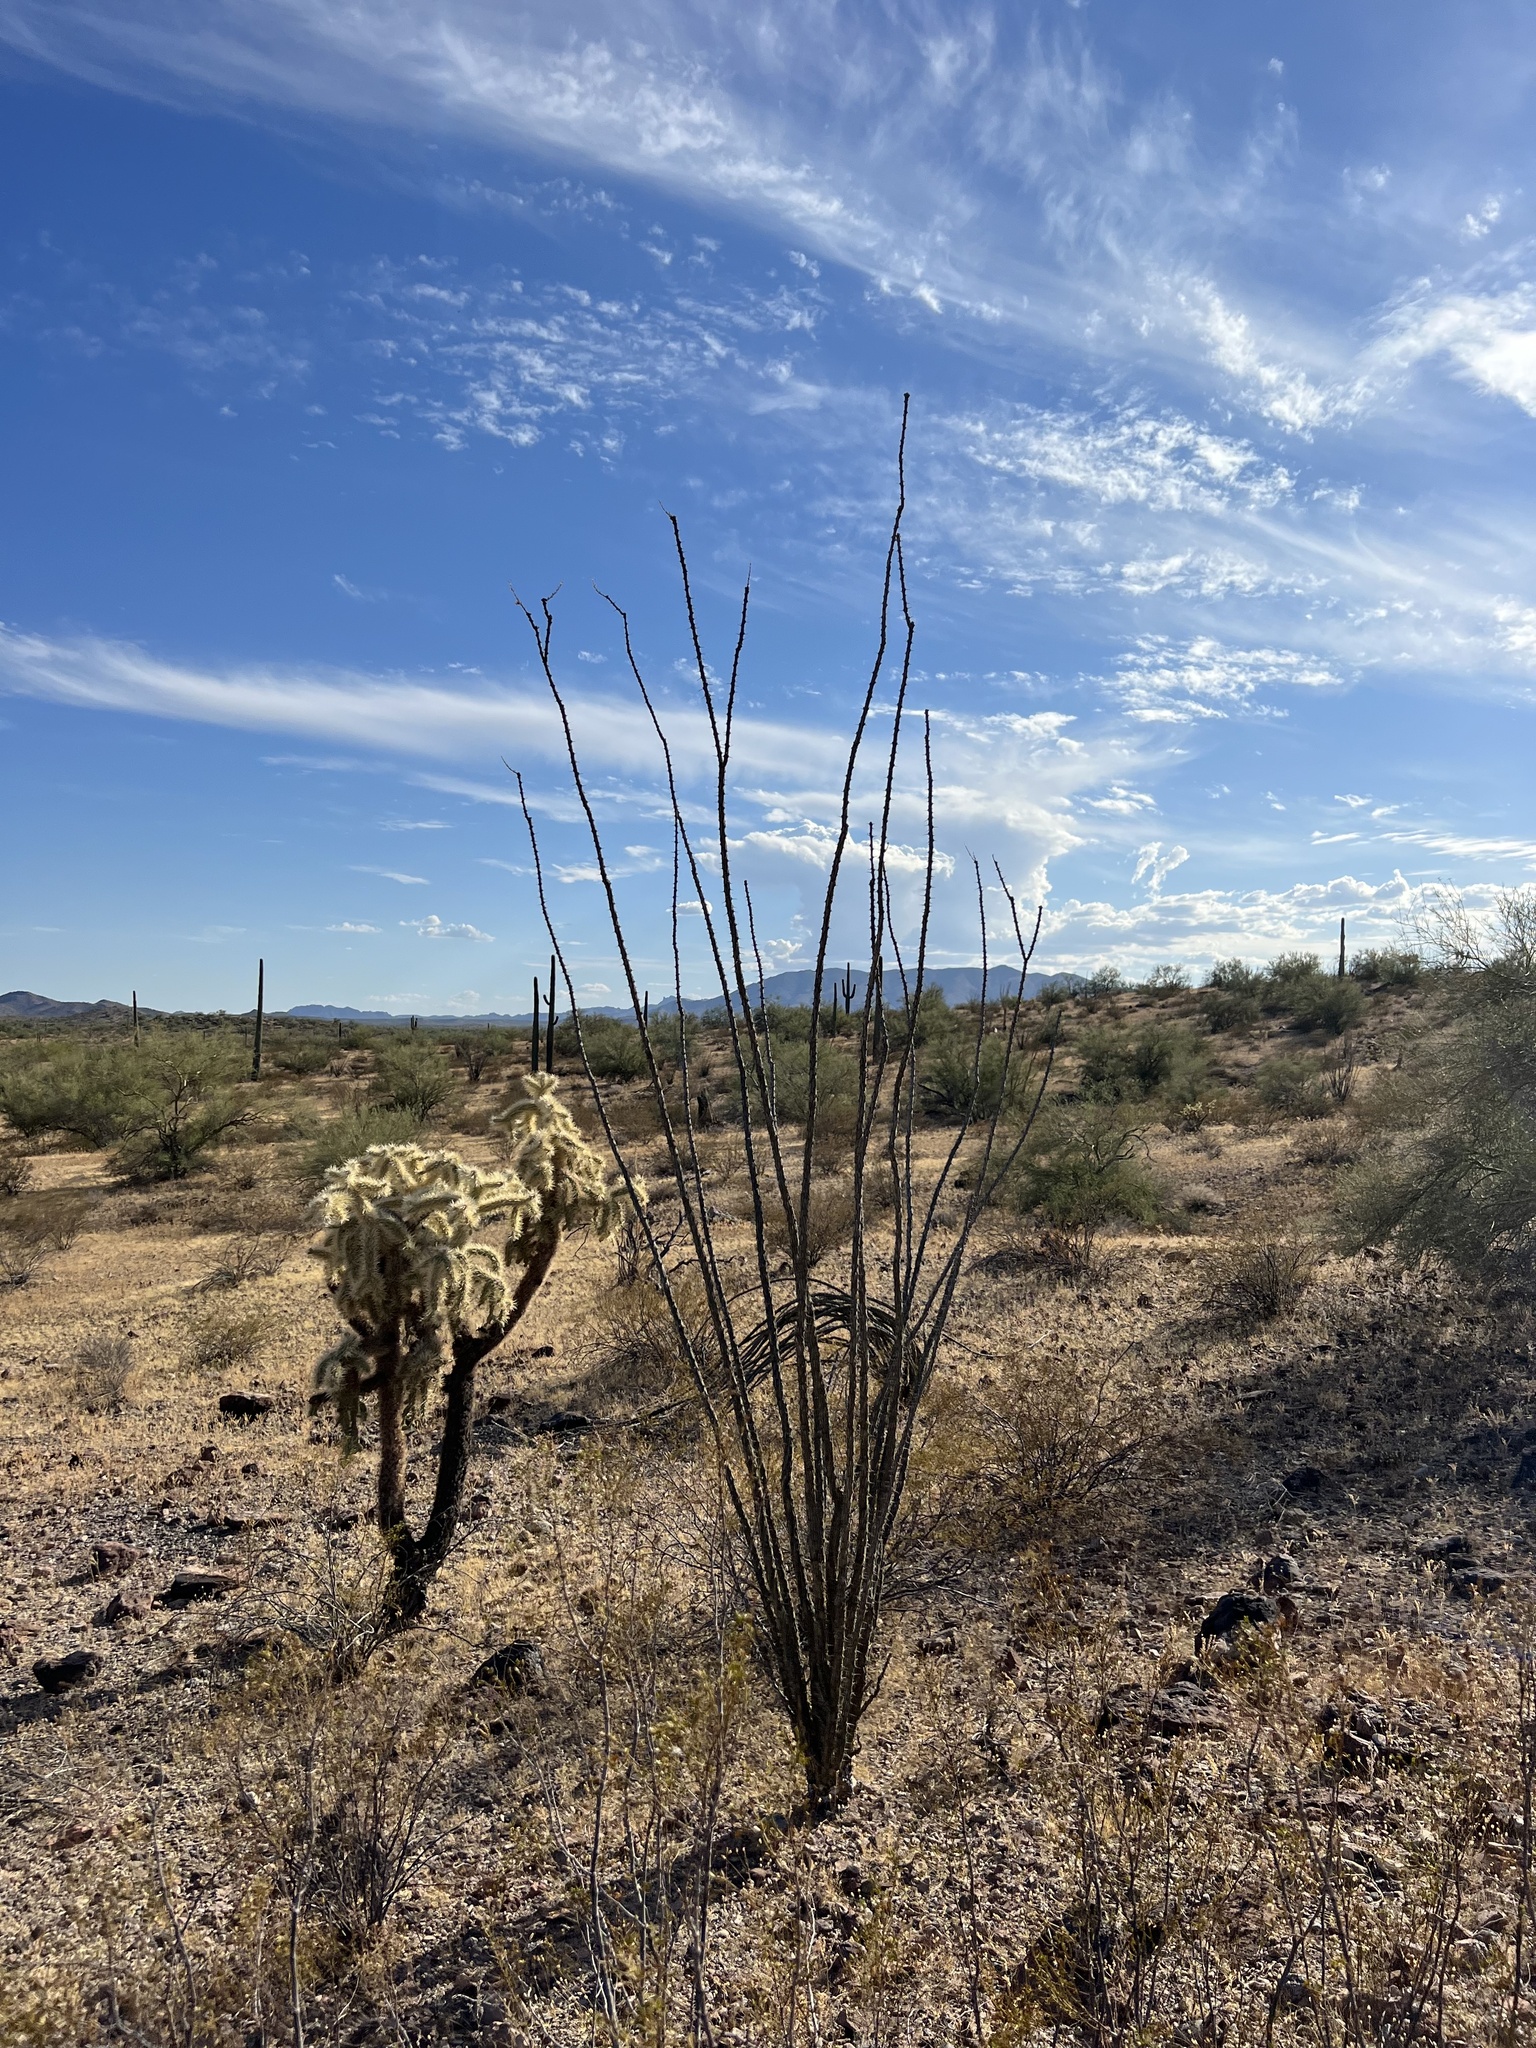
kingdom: Plantae
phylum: Tracheophyta
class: Magnoliopsida
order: Ericales
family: Fouquieriaceae
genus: Fouquieria
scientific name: Fouquieria splendens
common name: Vine-cactus
